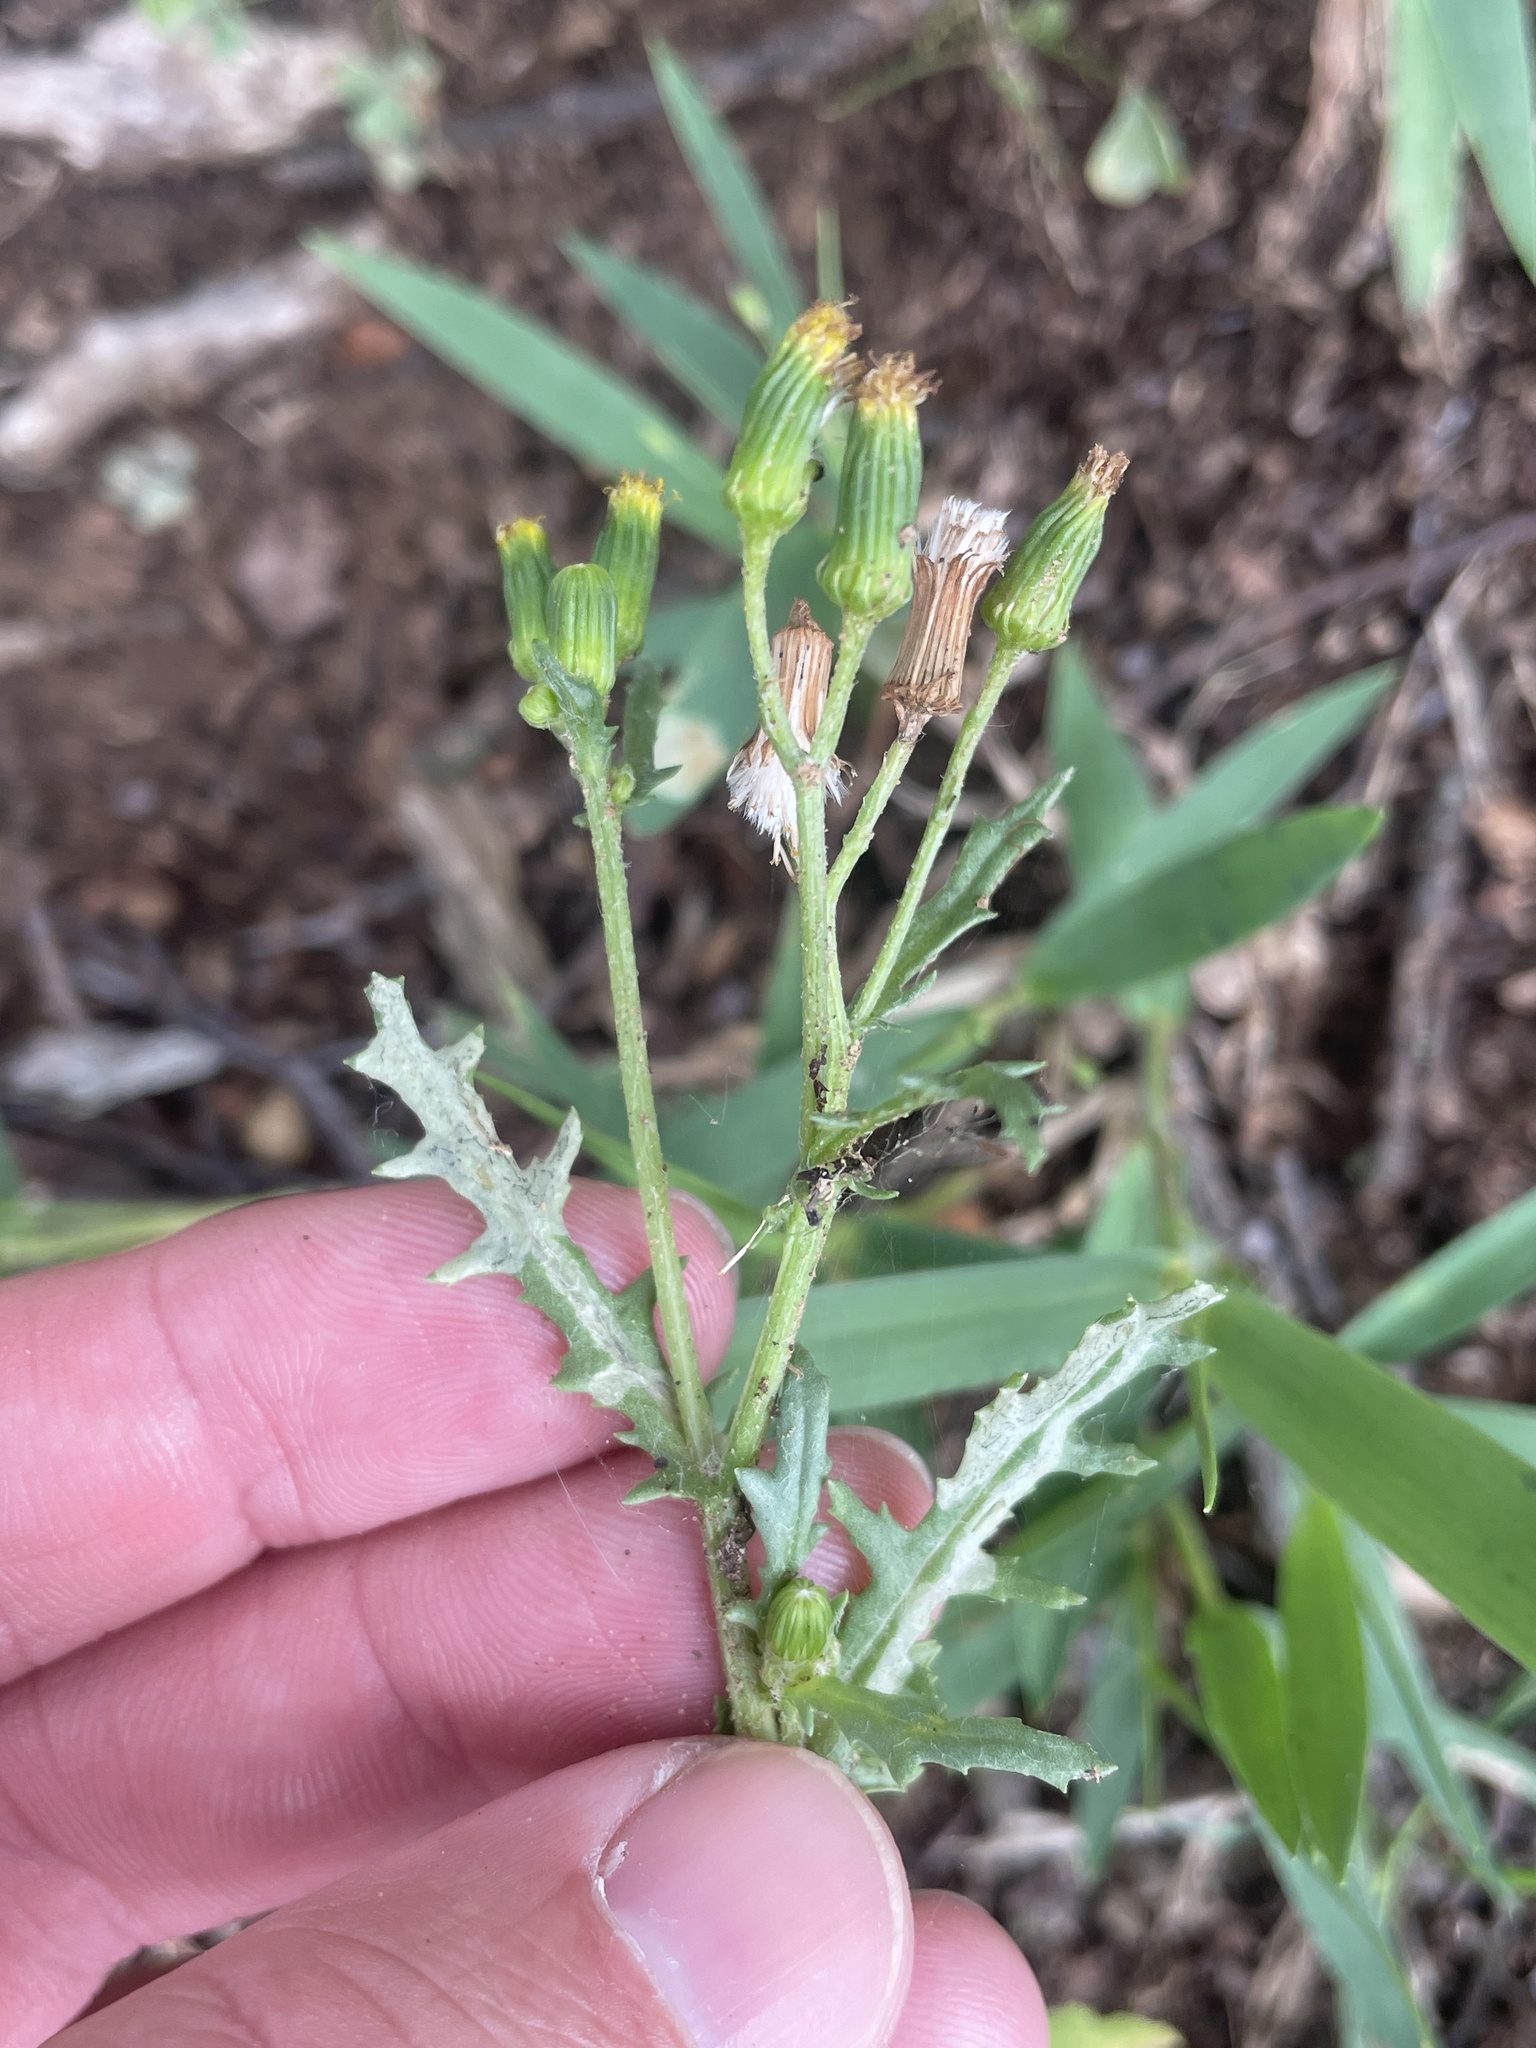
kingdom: Plantae
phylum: Tracheophyta
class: Magnoliopsida
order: Asterales
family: Asteraceae
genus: Senecio
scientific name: Senecio vulgaris
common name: Old-man-in-the-spring
